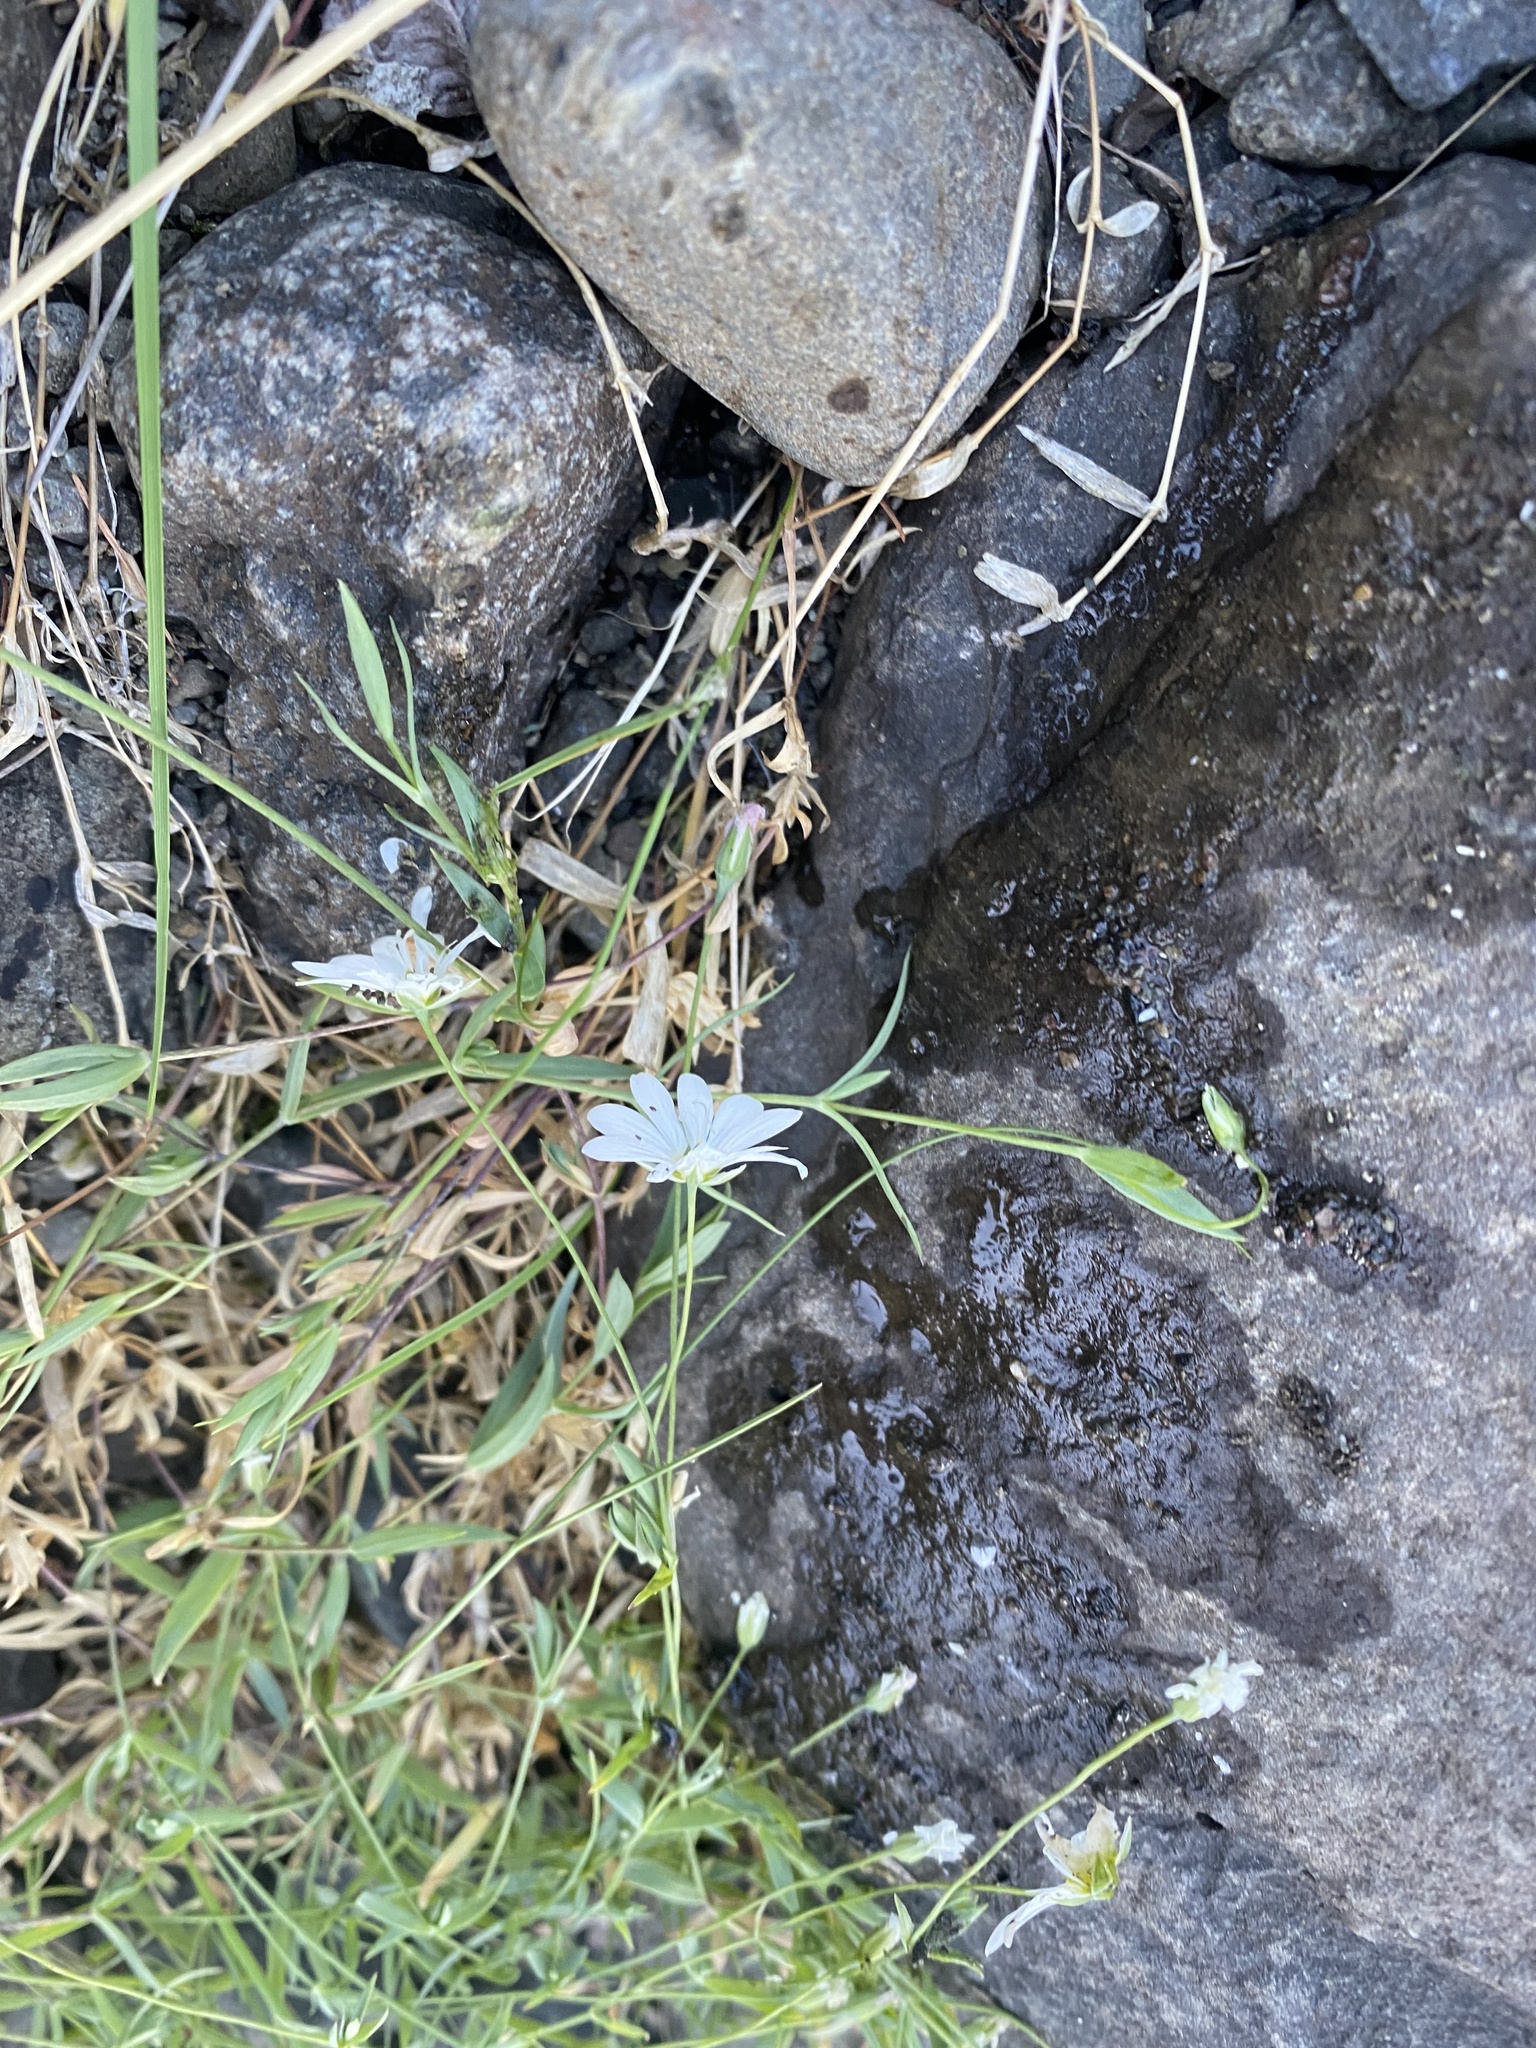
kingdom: Plantae
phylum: Tracheophyta
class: Magnoliopsida
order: Caryophyllales
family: Caryophyllaceae
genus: Stellaria
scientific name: Stellaria peduncularis
